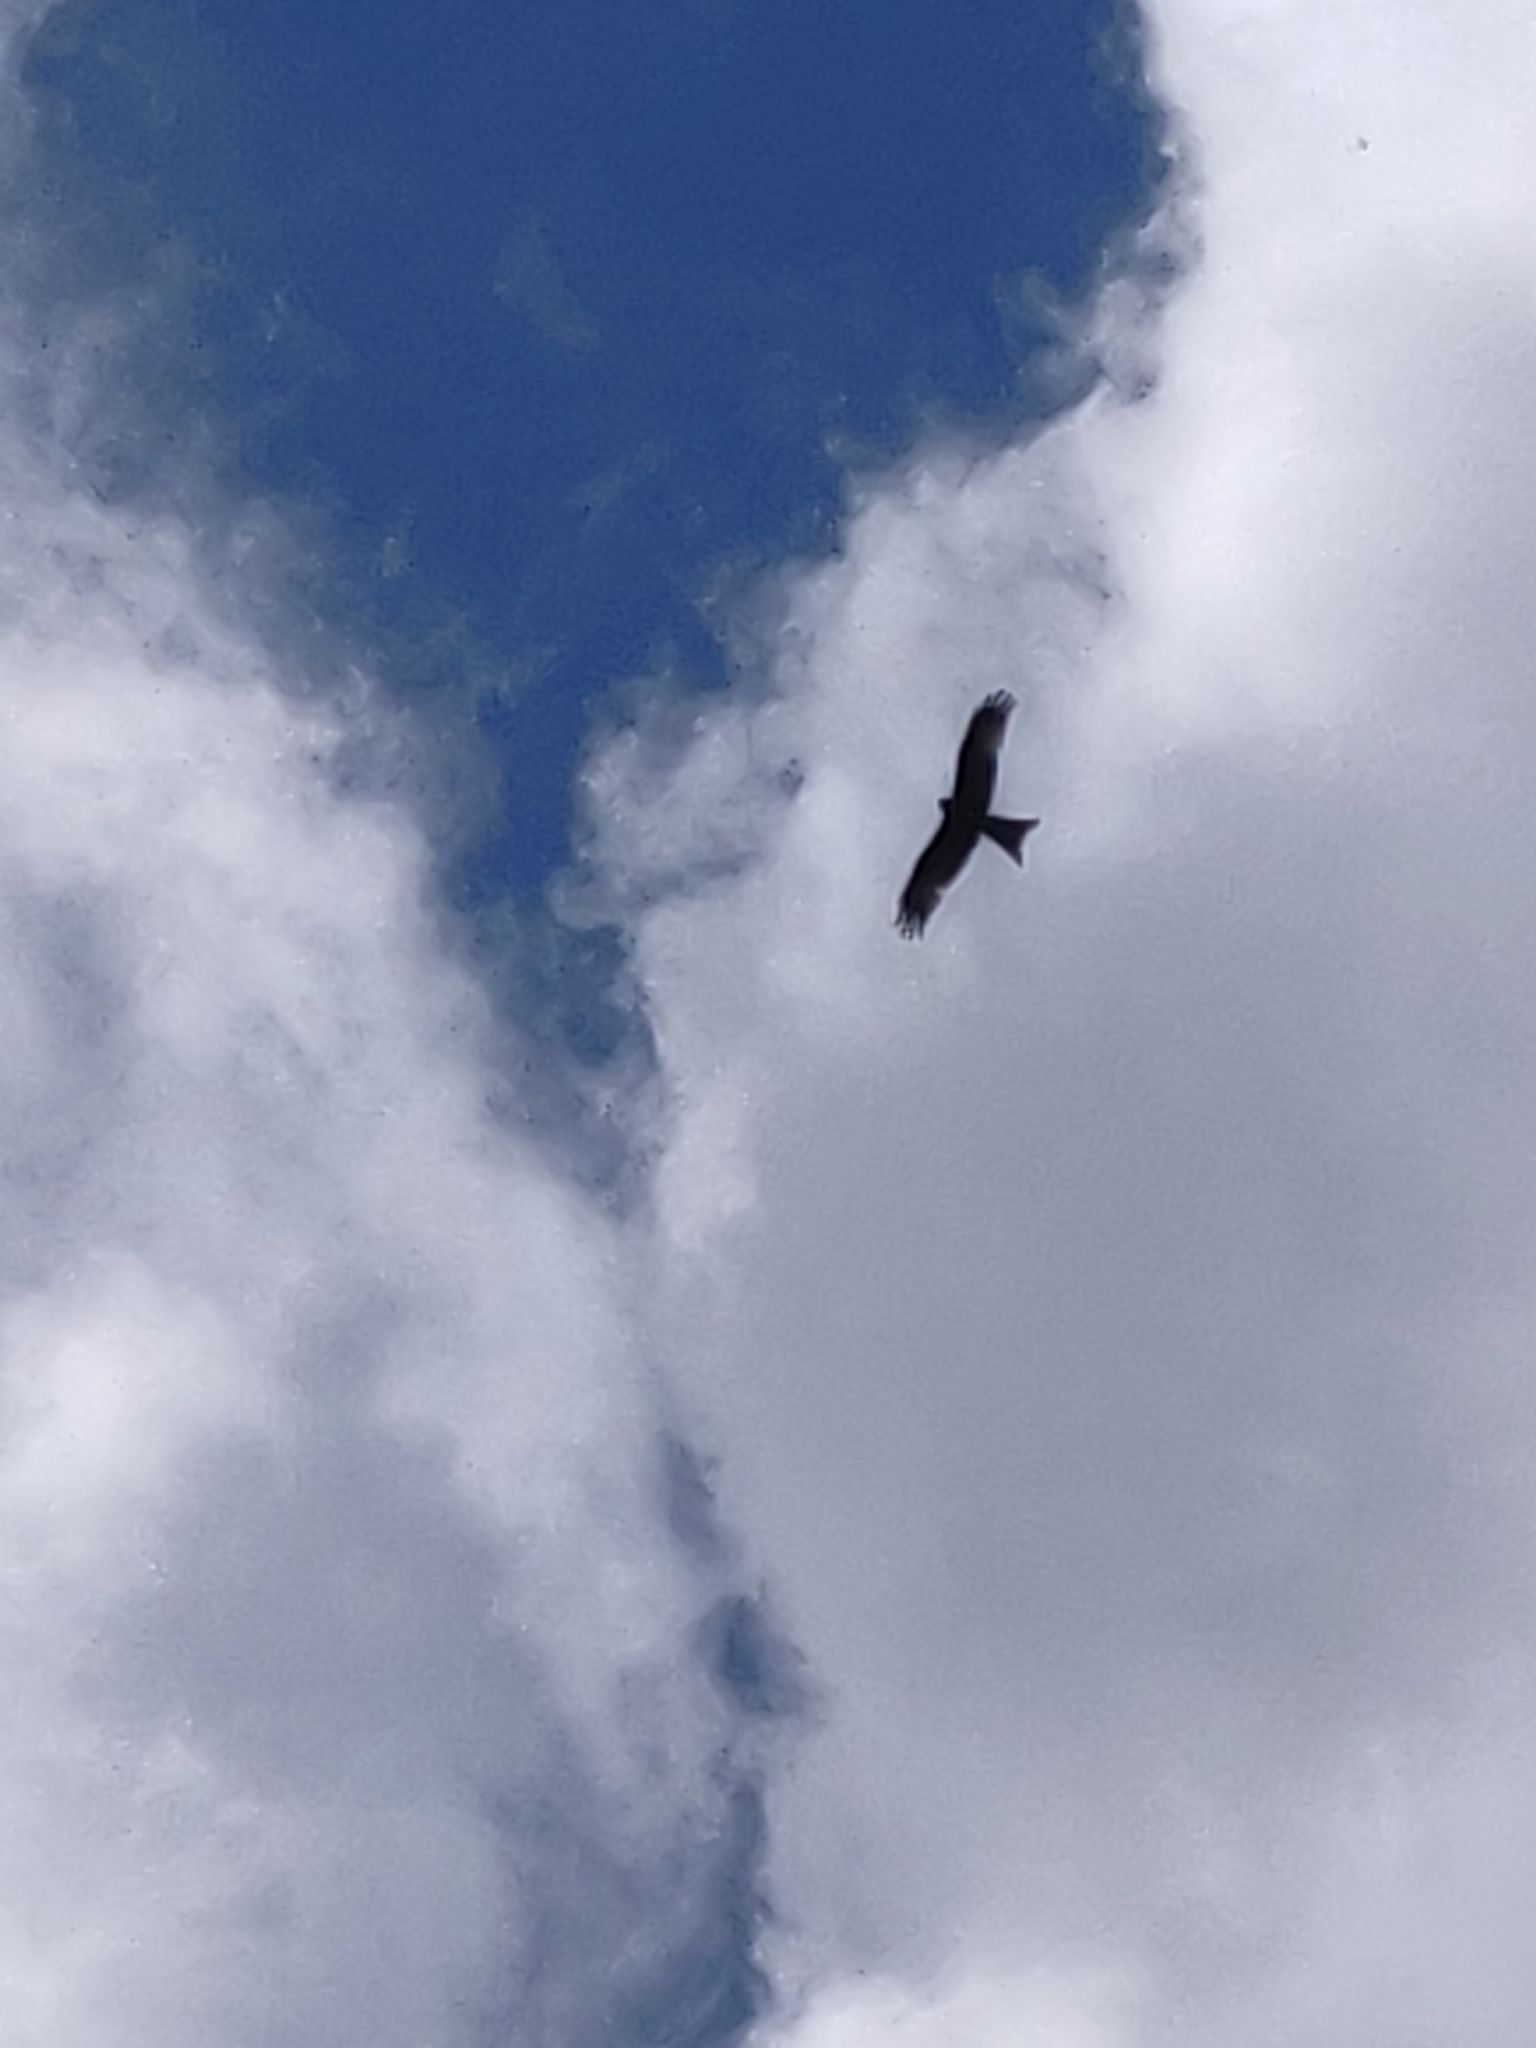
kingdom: Animalia
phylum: Chordata
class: Aves
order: Accipitriformes
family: Accipitridae
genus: Milvus
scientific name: Milvus milvus
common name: Red kite
